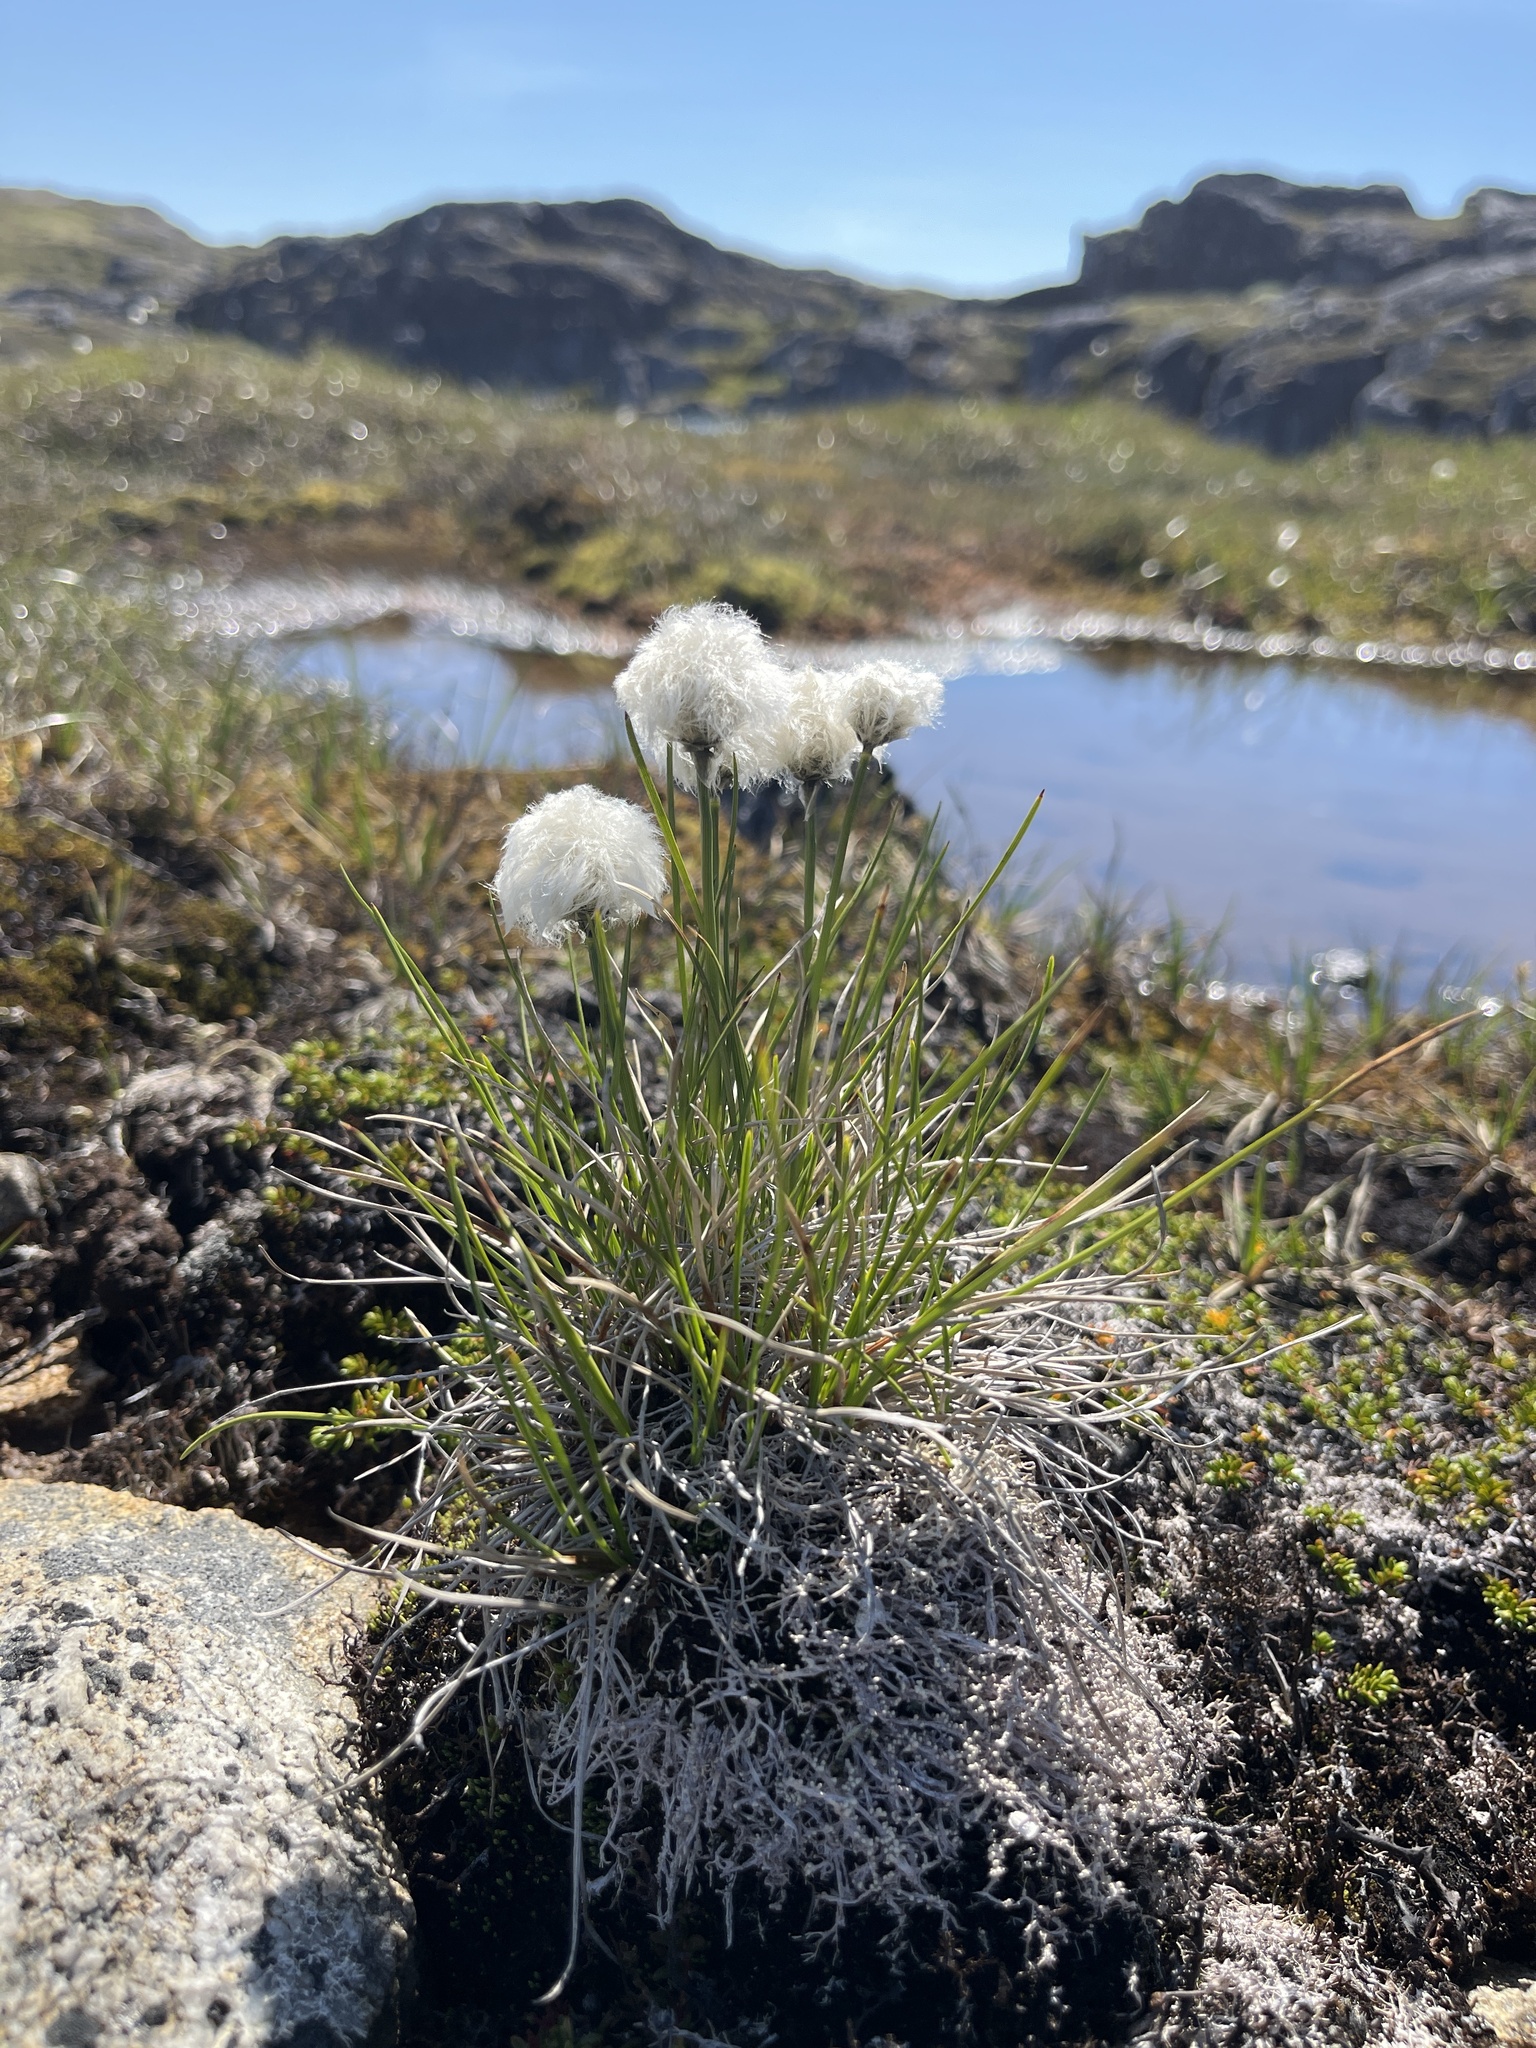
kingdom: Plantae
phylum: Tracheophyta
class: Liliopsida
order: Poales
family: Cyperaceae
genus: Eriophorum
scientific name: Eriophorum vaginatum
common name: Hare's-tail cottongrass
